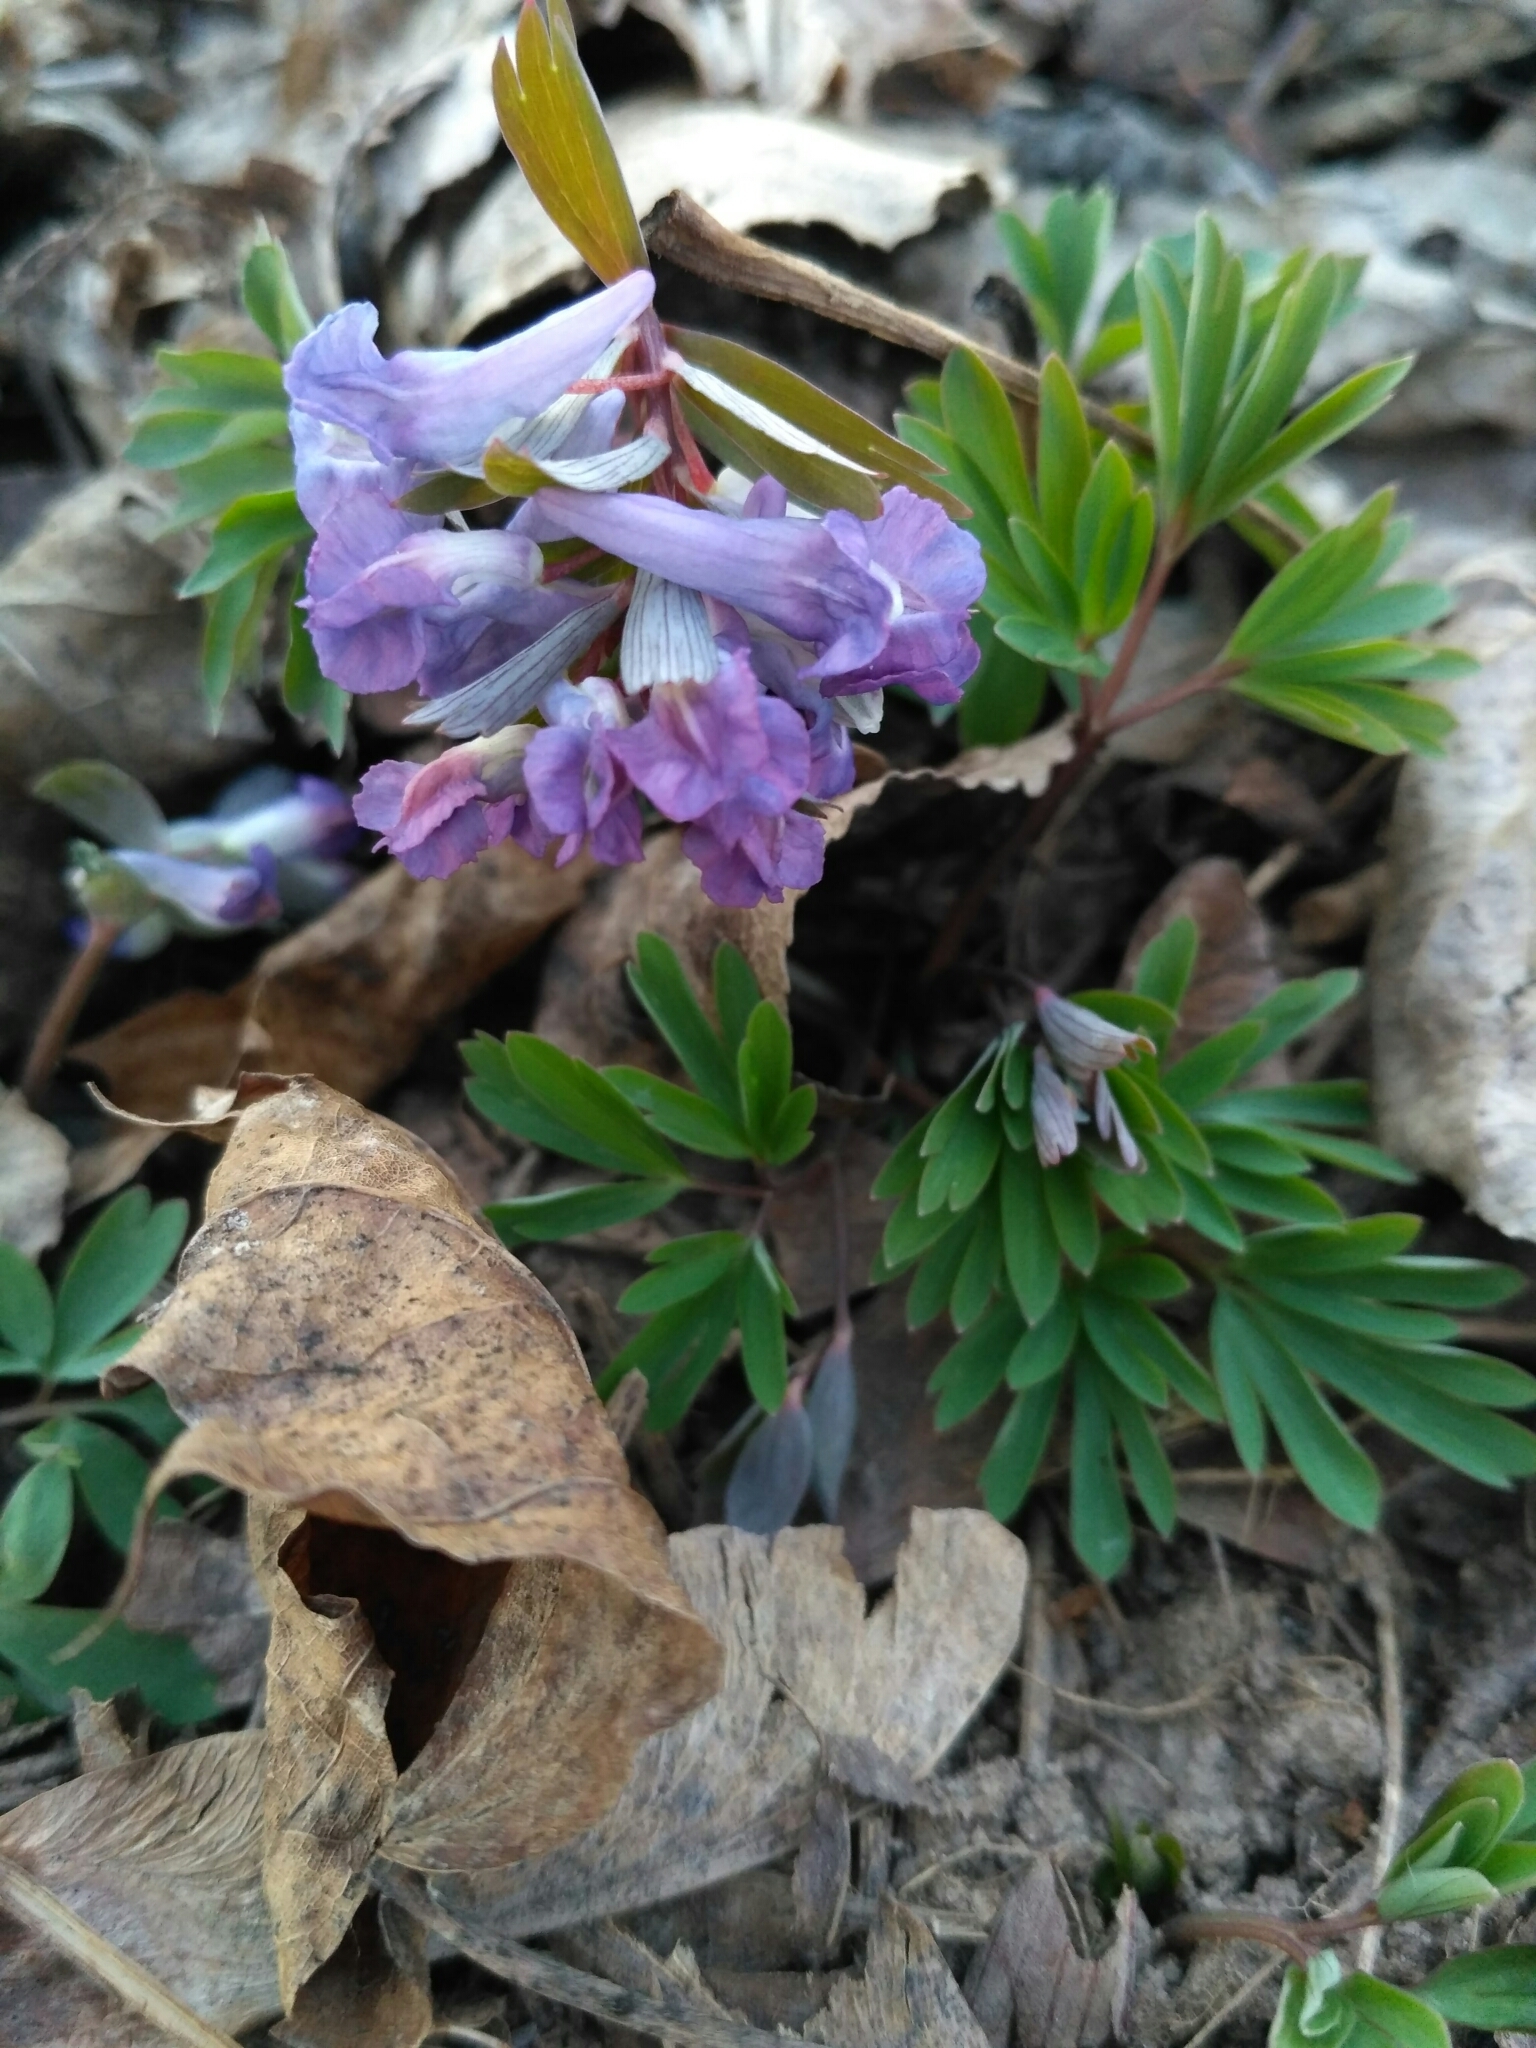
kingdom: Plantae
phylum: Tracheophyta
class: Magnoliopsida
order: Ranunculales
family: Papaveraceae
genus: Corydalis
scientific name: Corydalis solida
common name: Bird-in-a-bush
